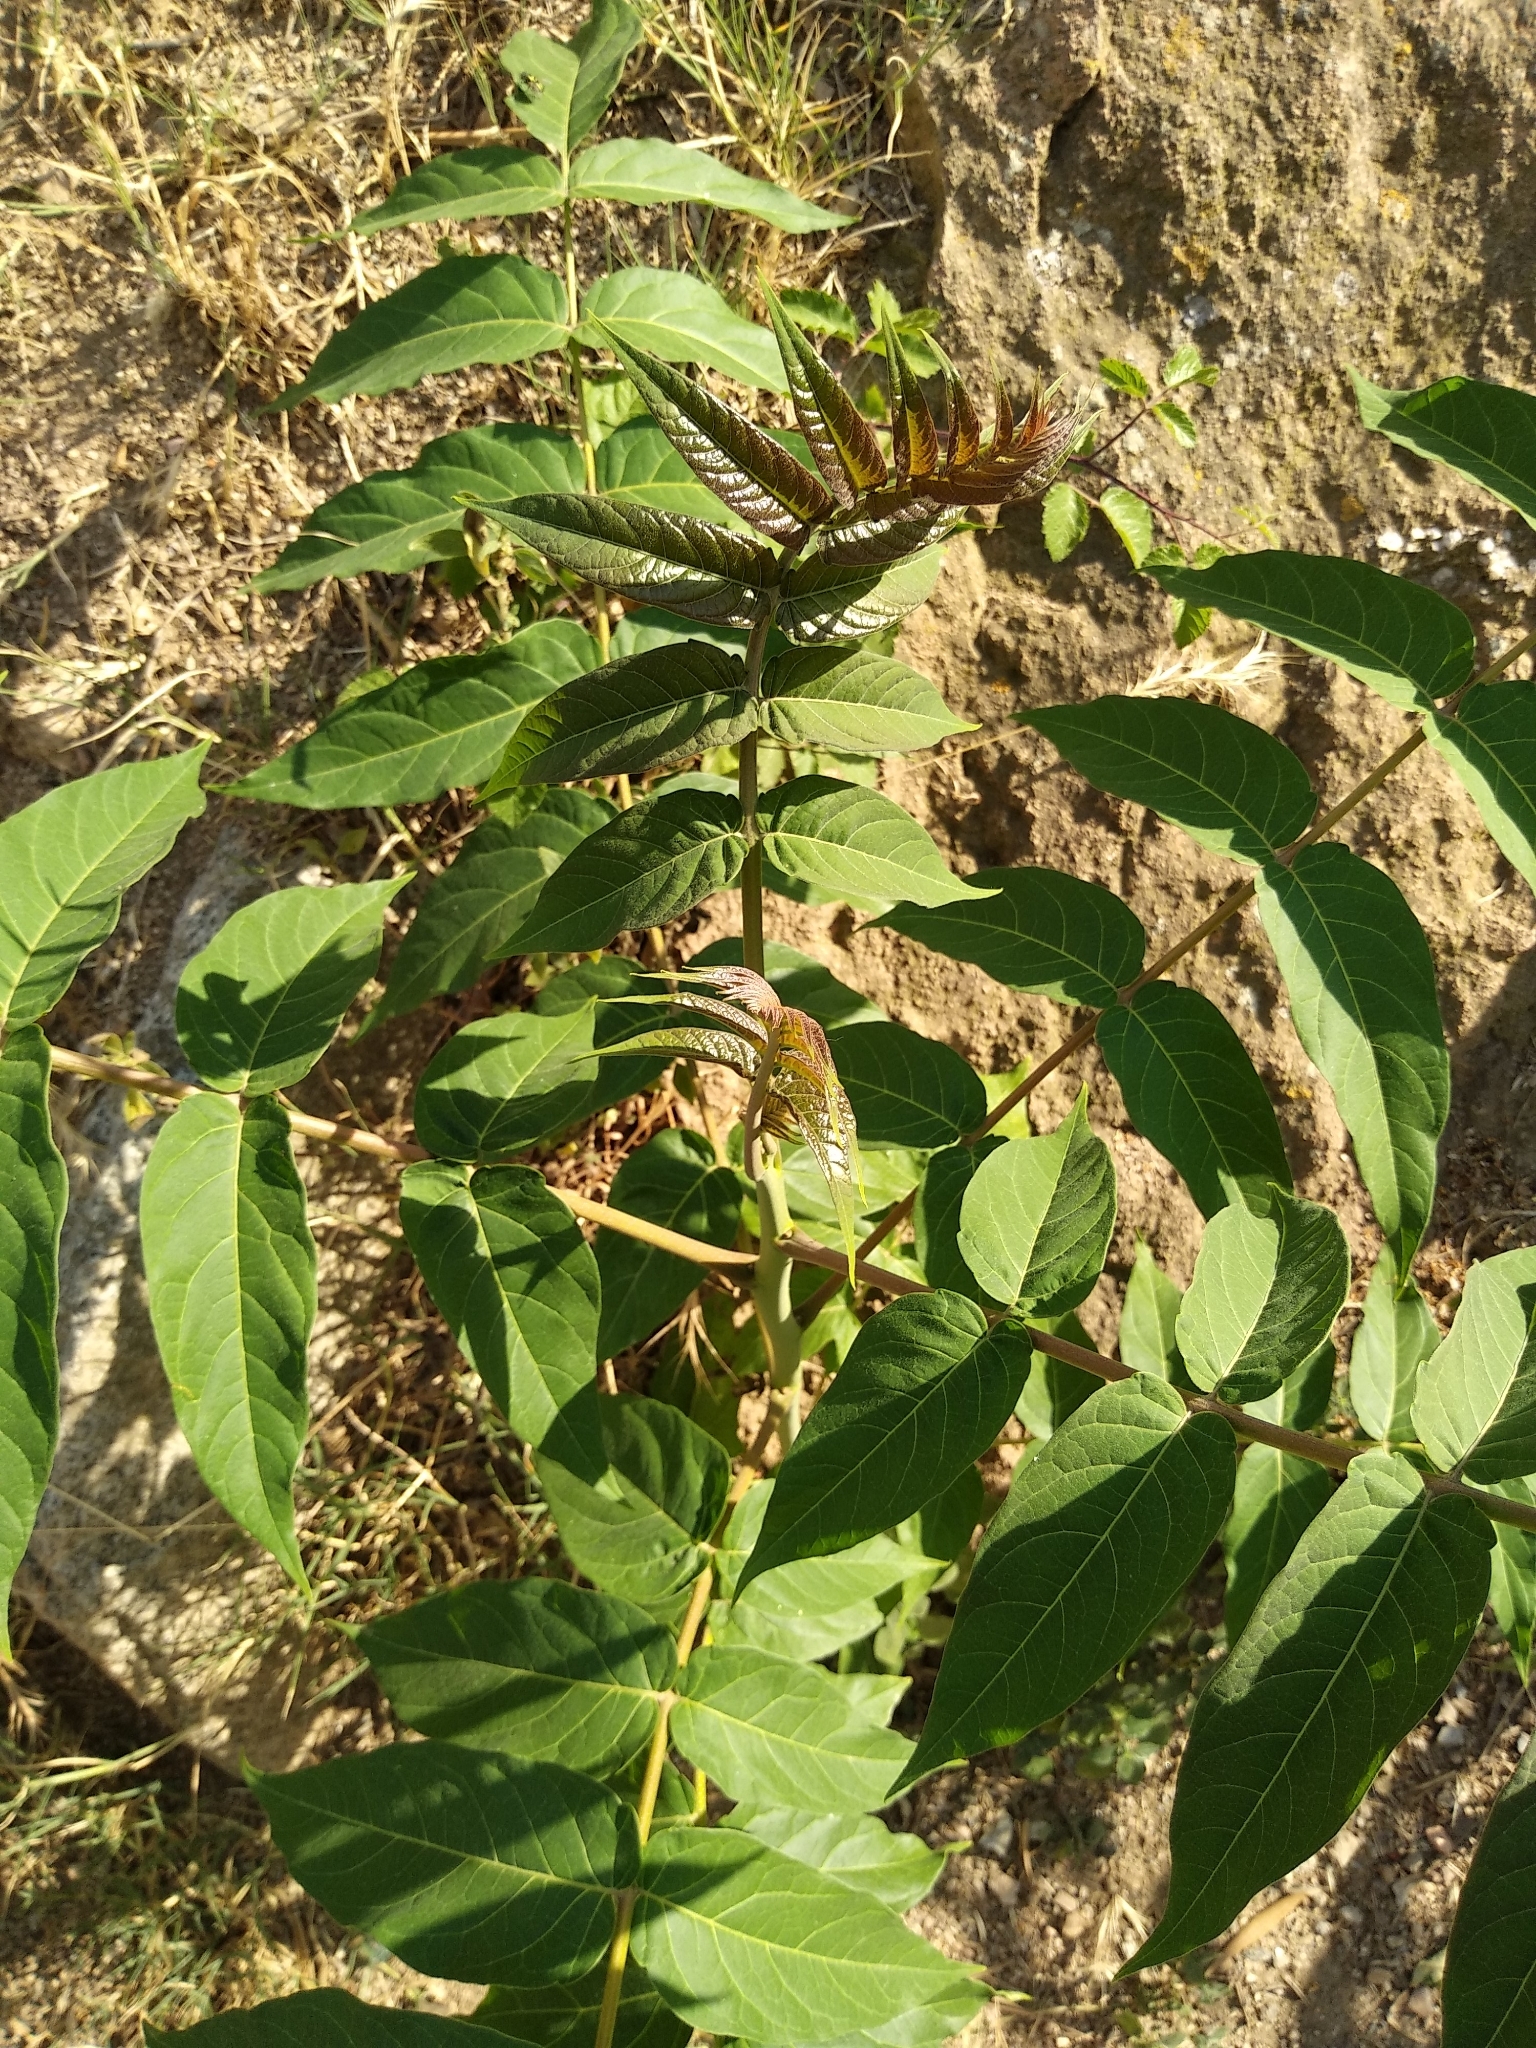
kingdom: Plantae
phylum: Tracheophyta
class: Magnoliopsida
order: Sapindales
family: Simaroubaceae
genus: Ailanthus
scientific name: Ailanthus altissima
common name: Tree-of-heaven
